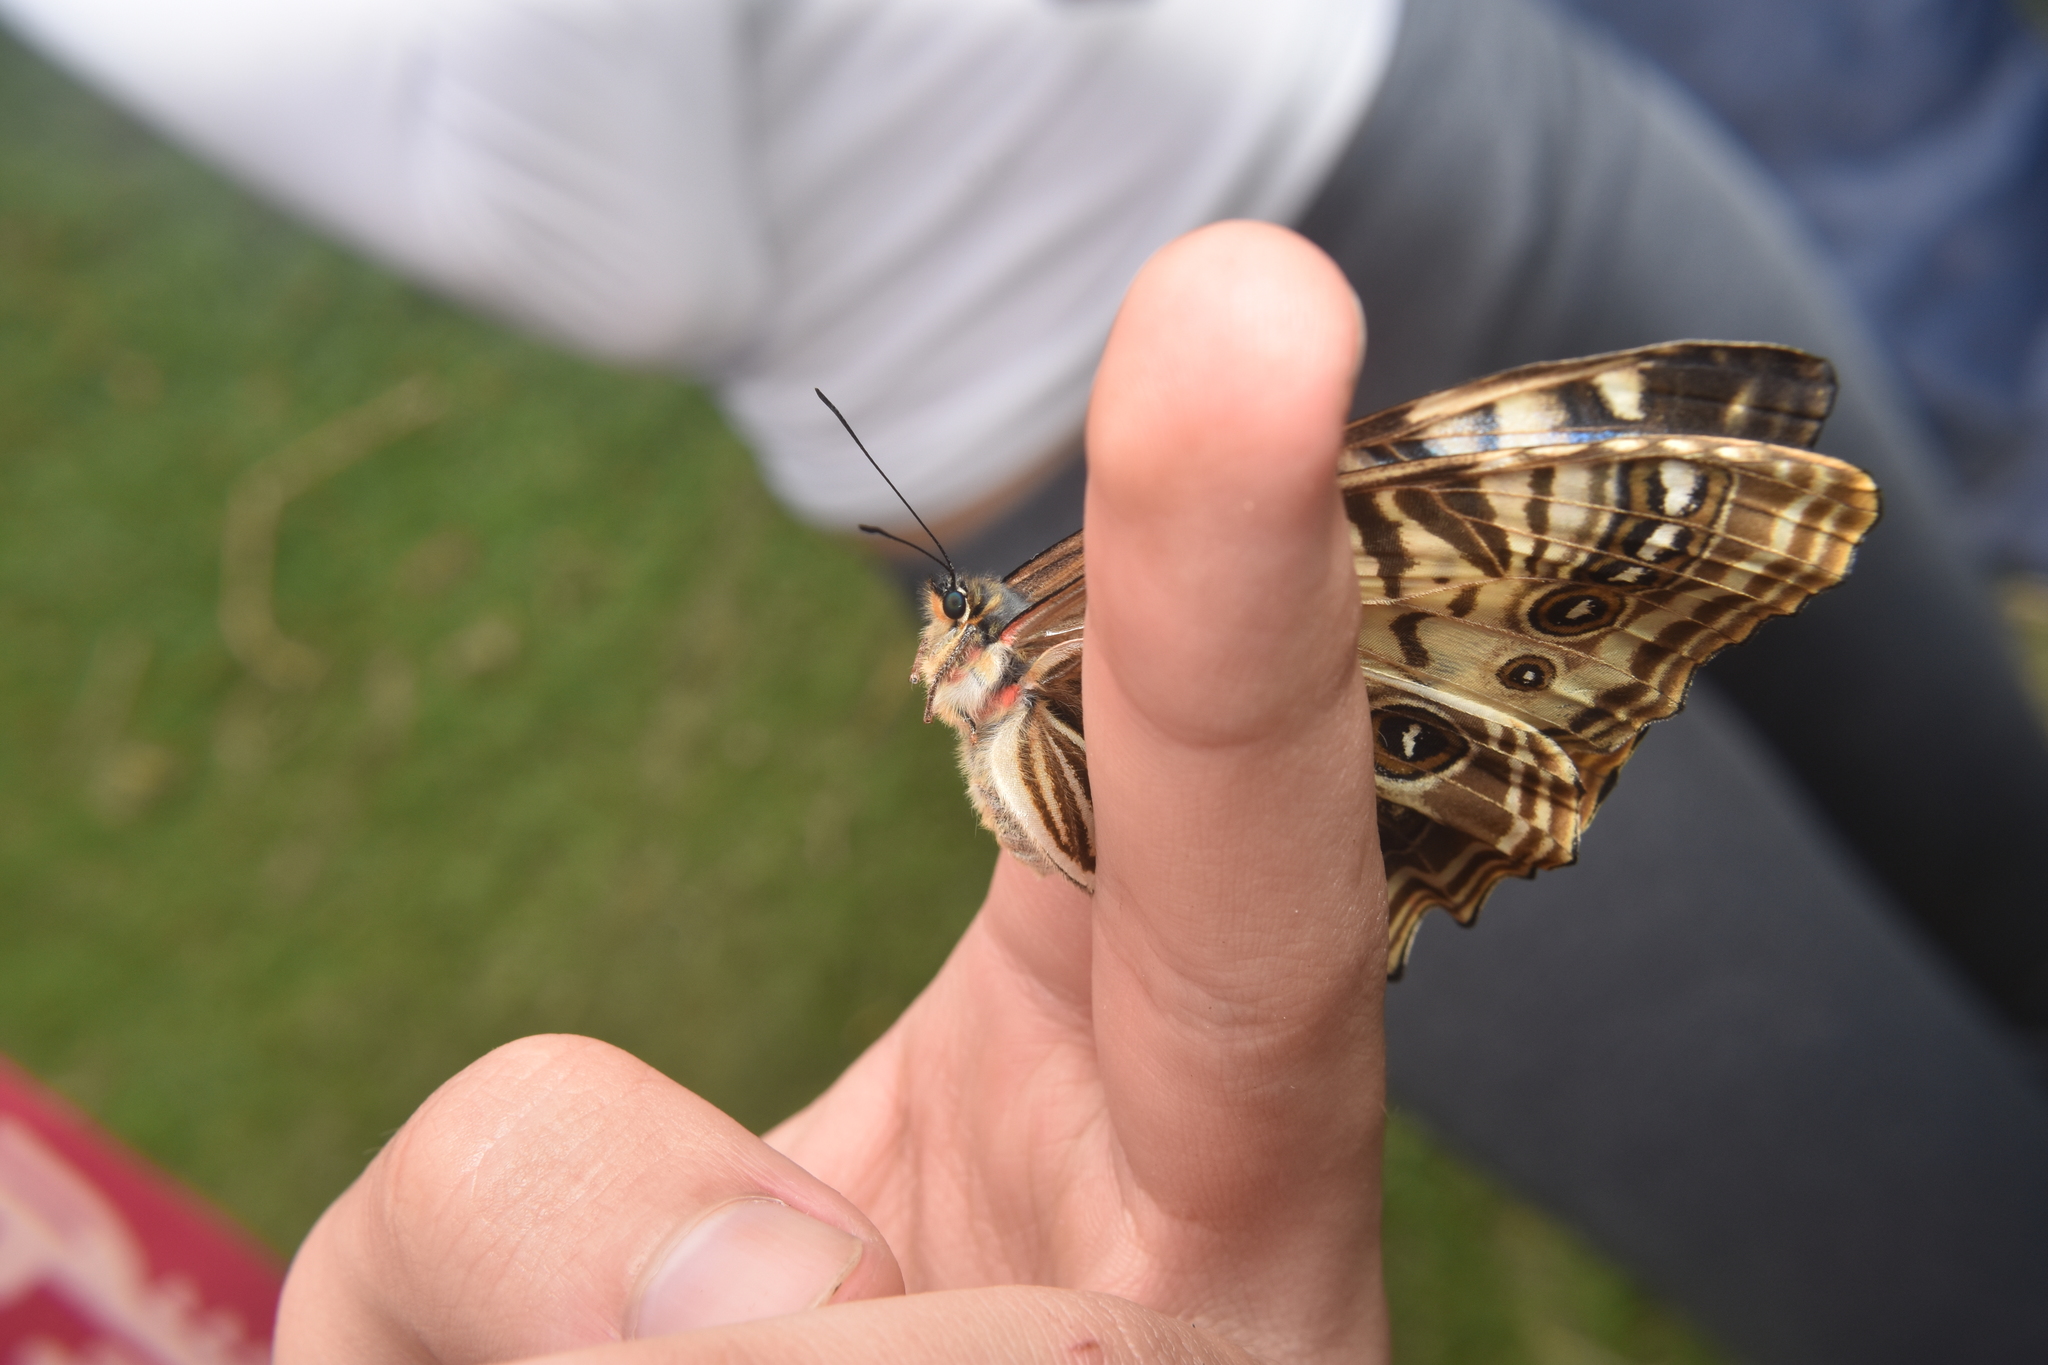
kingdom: Animalia
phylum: Arthropoda
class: Insecta
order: Lepidoptera
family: Nymphalidae
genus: Morpho
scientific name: Morpho sulkowskyi
